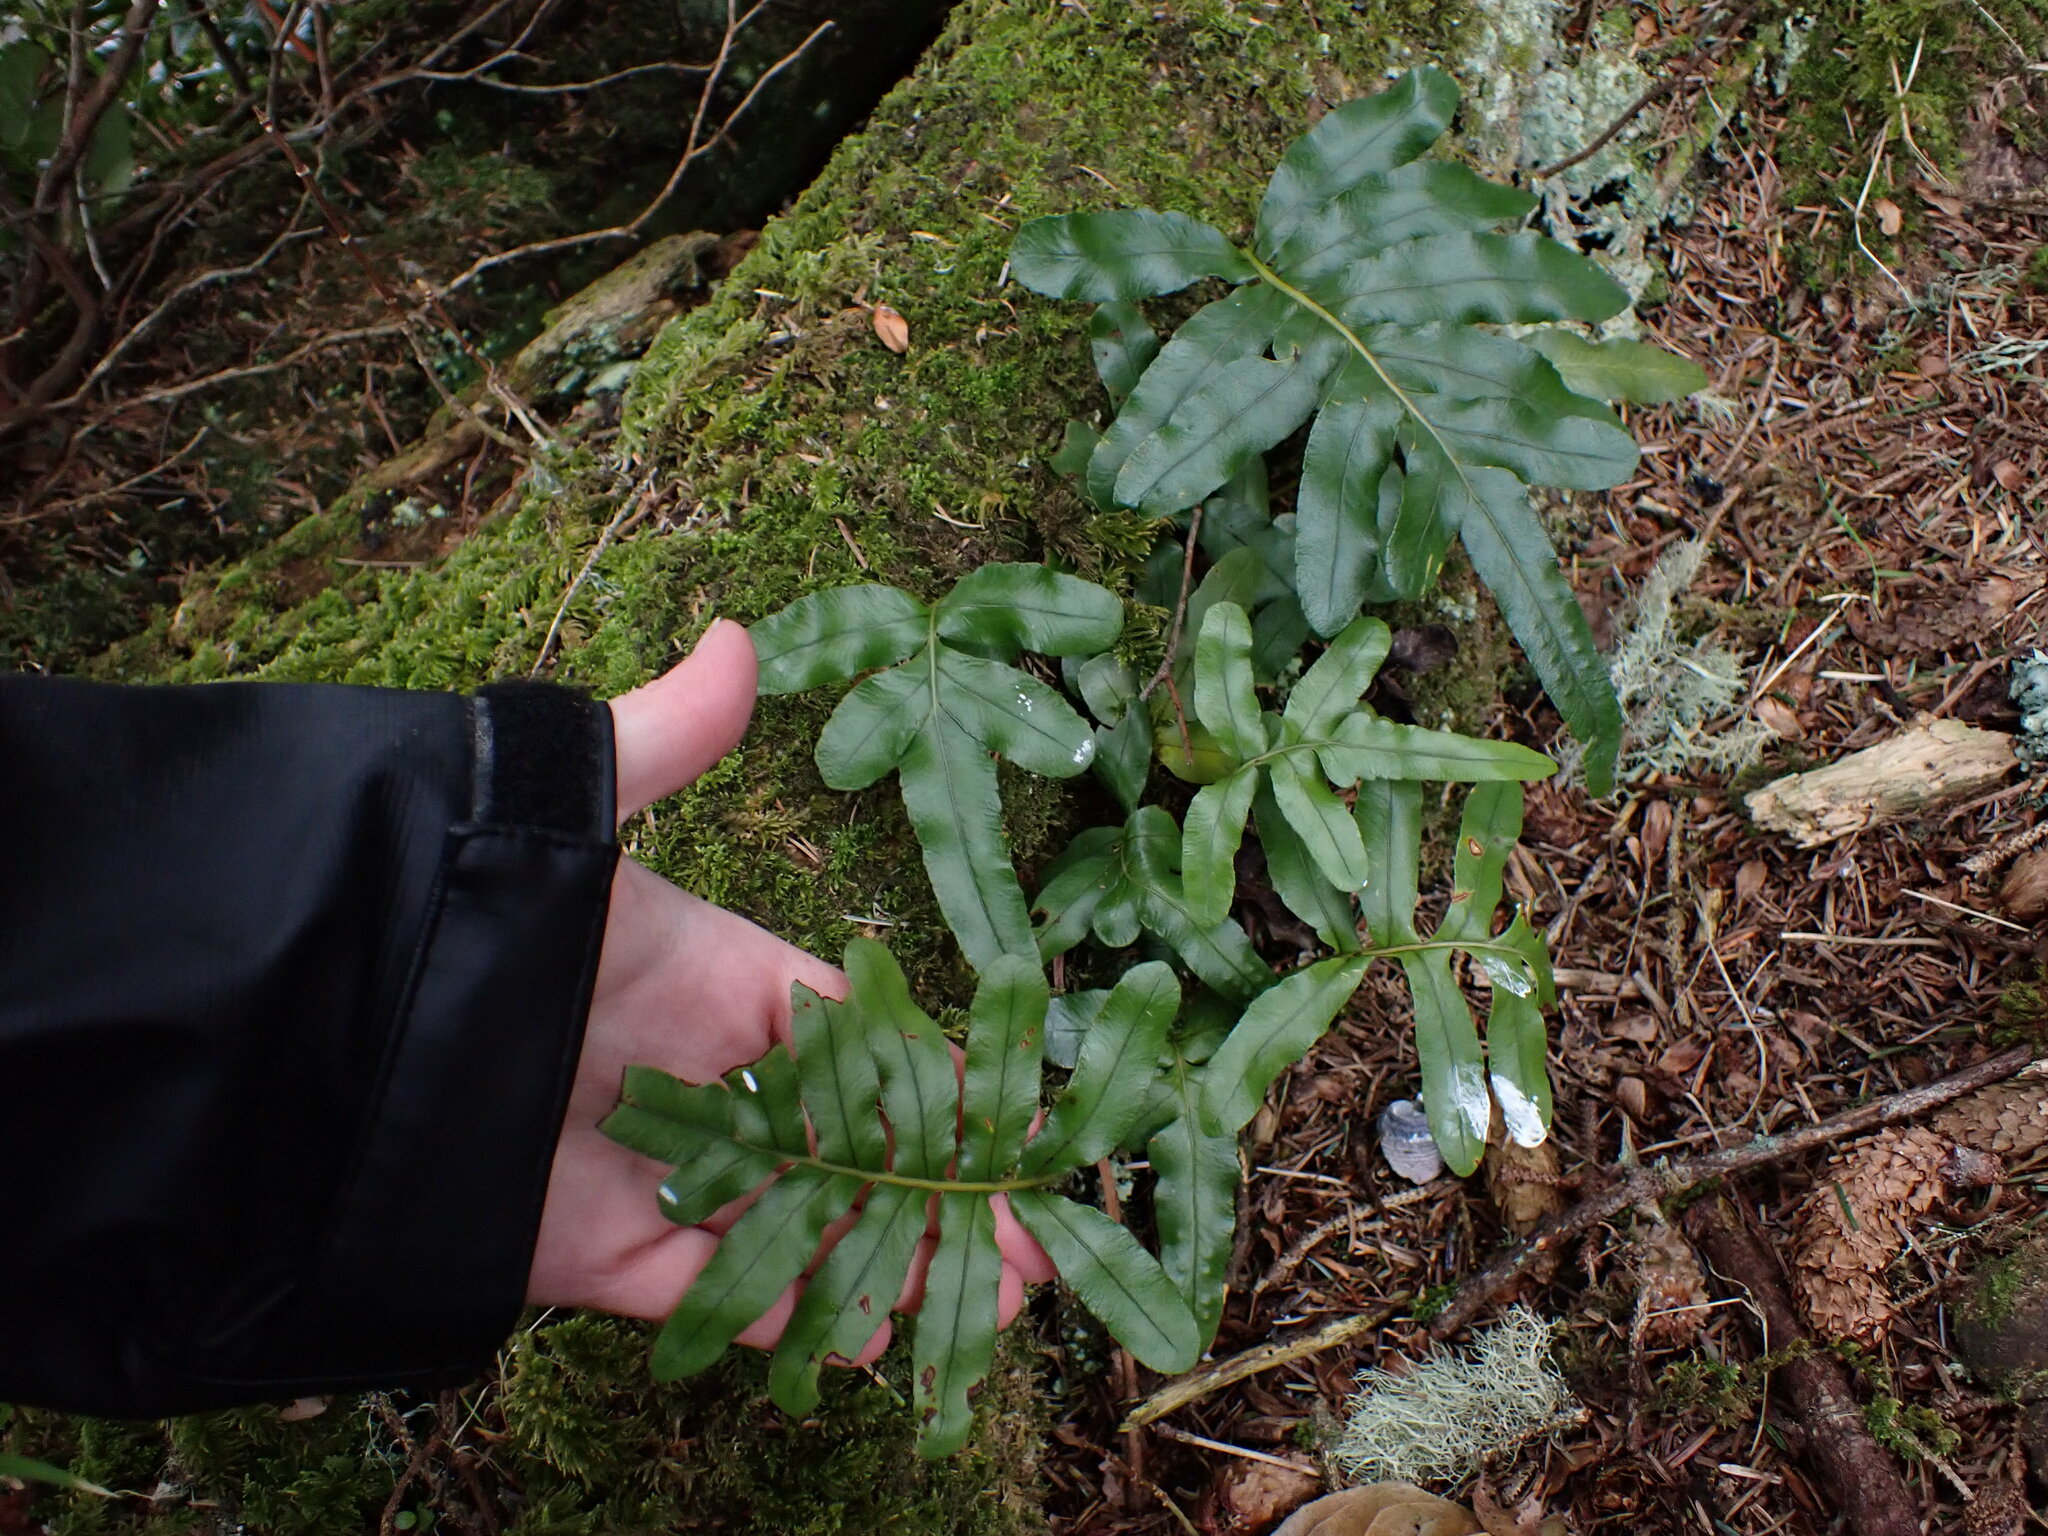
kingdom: Plantae
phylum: Tracheophyta
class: Polypodiopsida
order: Polypodiales
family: Polypodiaceae
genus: Polypodium
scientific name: Polypodium scouleri
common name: Scouler's polypody
